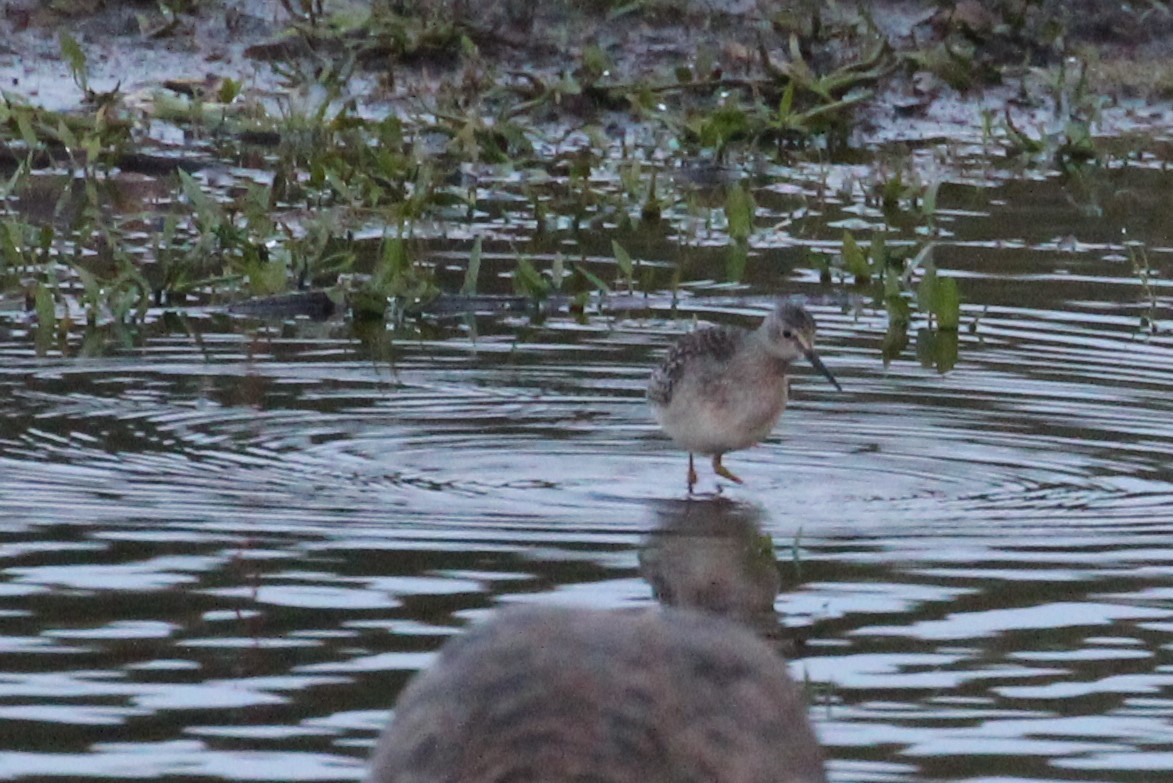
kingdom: Animalia
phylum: Chordata
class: Aves
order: Charadriiformes
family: Scolopacidae
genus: Tringa
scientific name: Tringa flavipes
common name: Lesser yellowlegs
